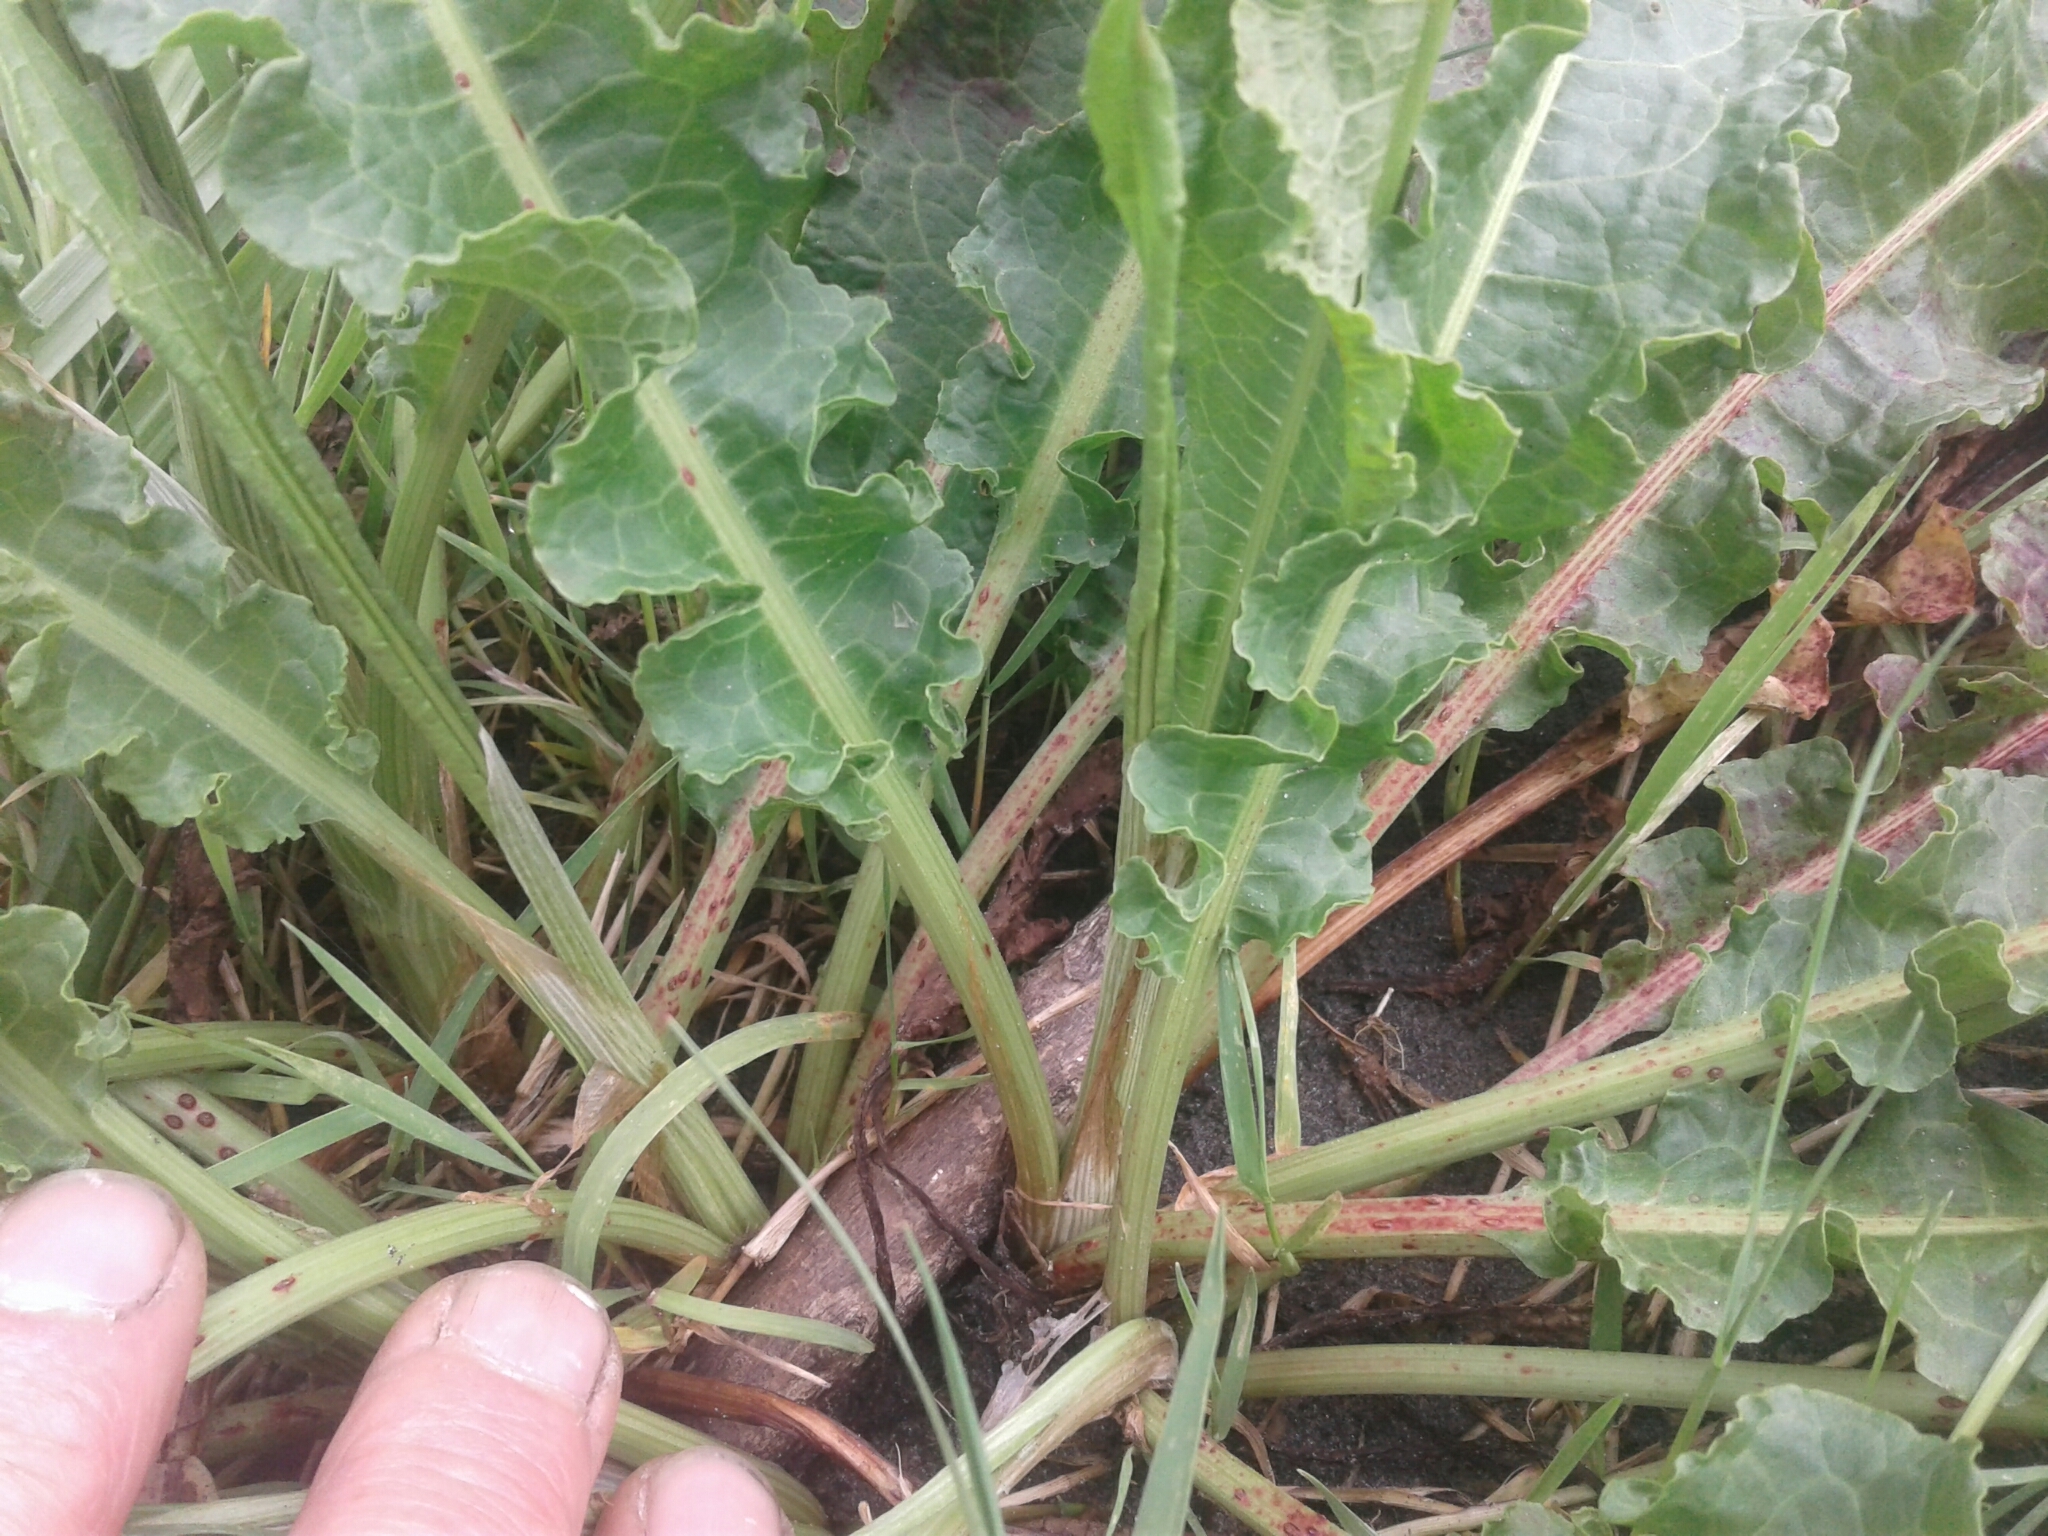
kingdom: Plantae
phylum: Tracheophyta
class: Magnoliopsida
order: Caryophyllales
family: Polygonaceae
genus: Rumex
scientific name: Rumex crispus
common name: Curled dock
